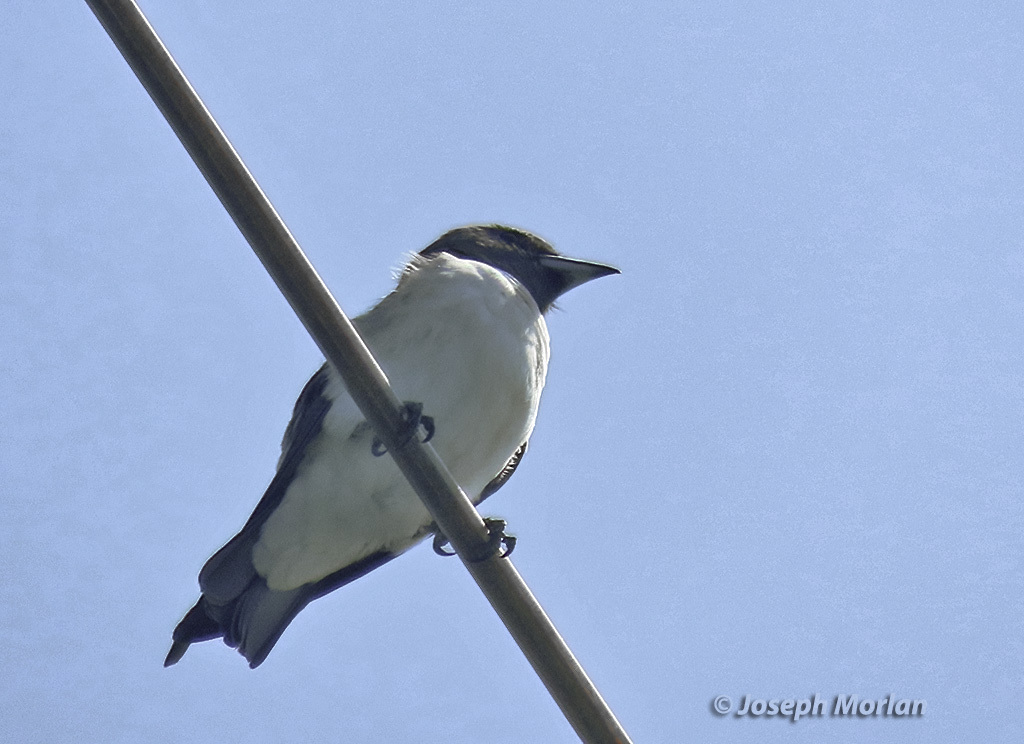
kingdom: Animalia
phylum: Chordata
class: Aves
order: Passeriformes
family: Artamidae
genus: Artamus
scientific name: Artamus leucoryn
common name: White-breasted woodswallow
